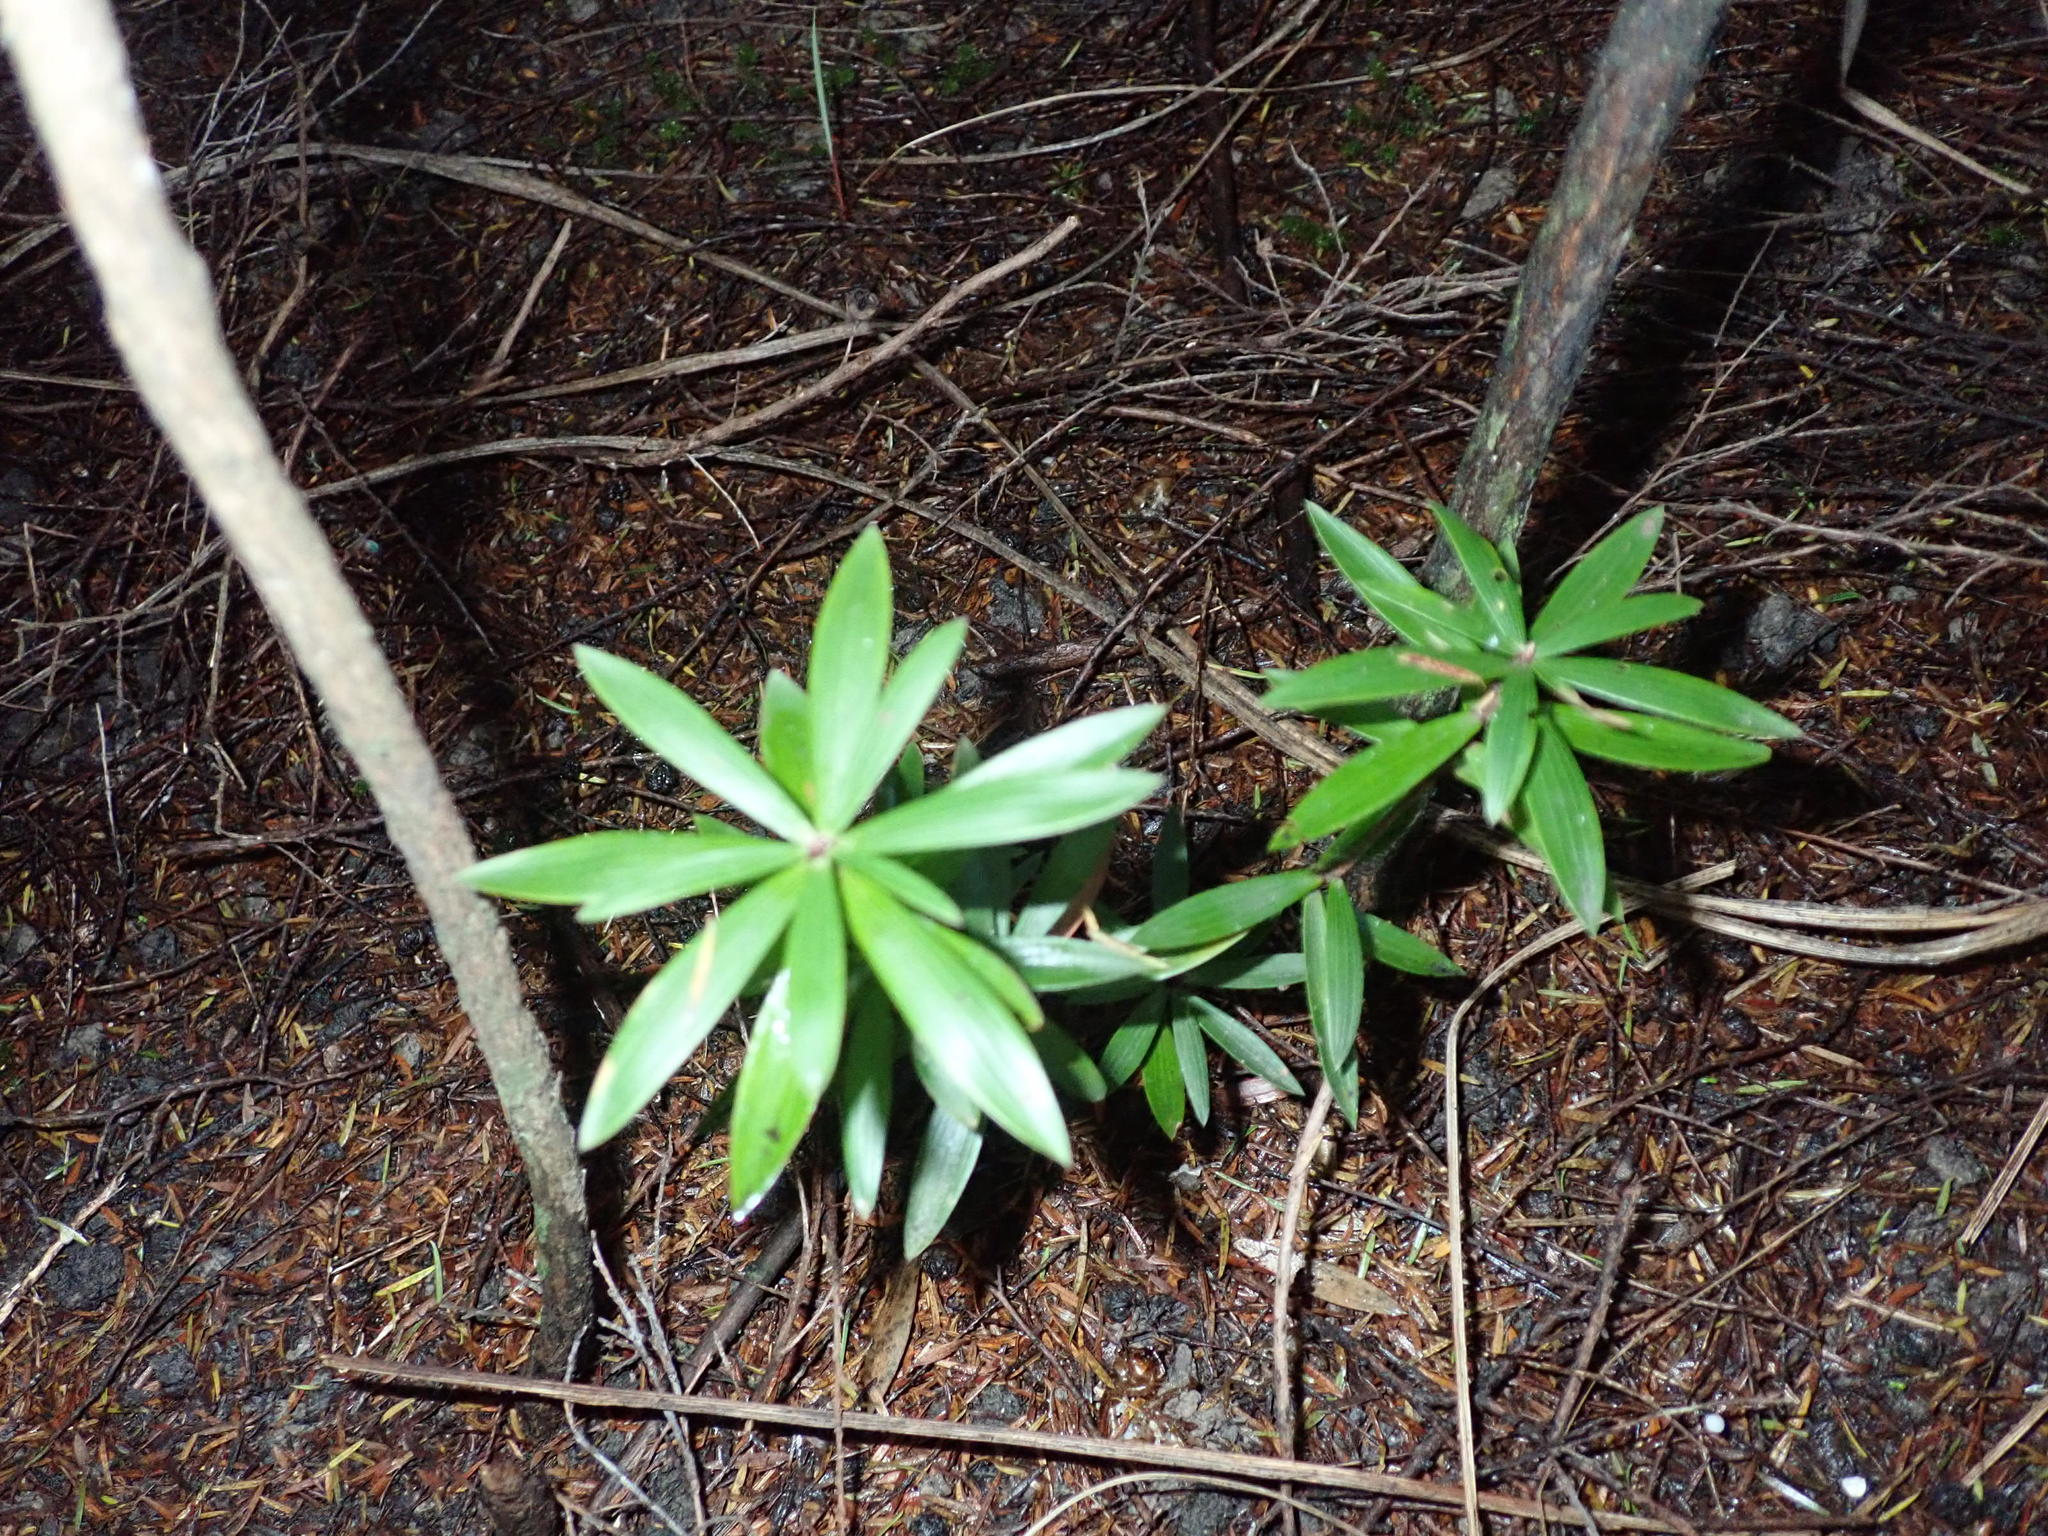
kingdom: Plantae
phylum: Tracheophyta
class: Magnoliopsida
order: Ericales
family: Ericaceae
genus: Leucopogon
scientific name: Leucopogon fasciculatus
